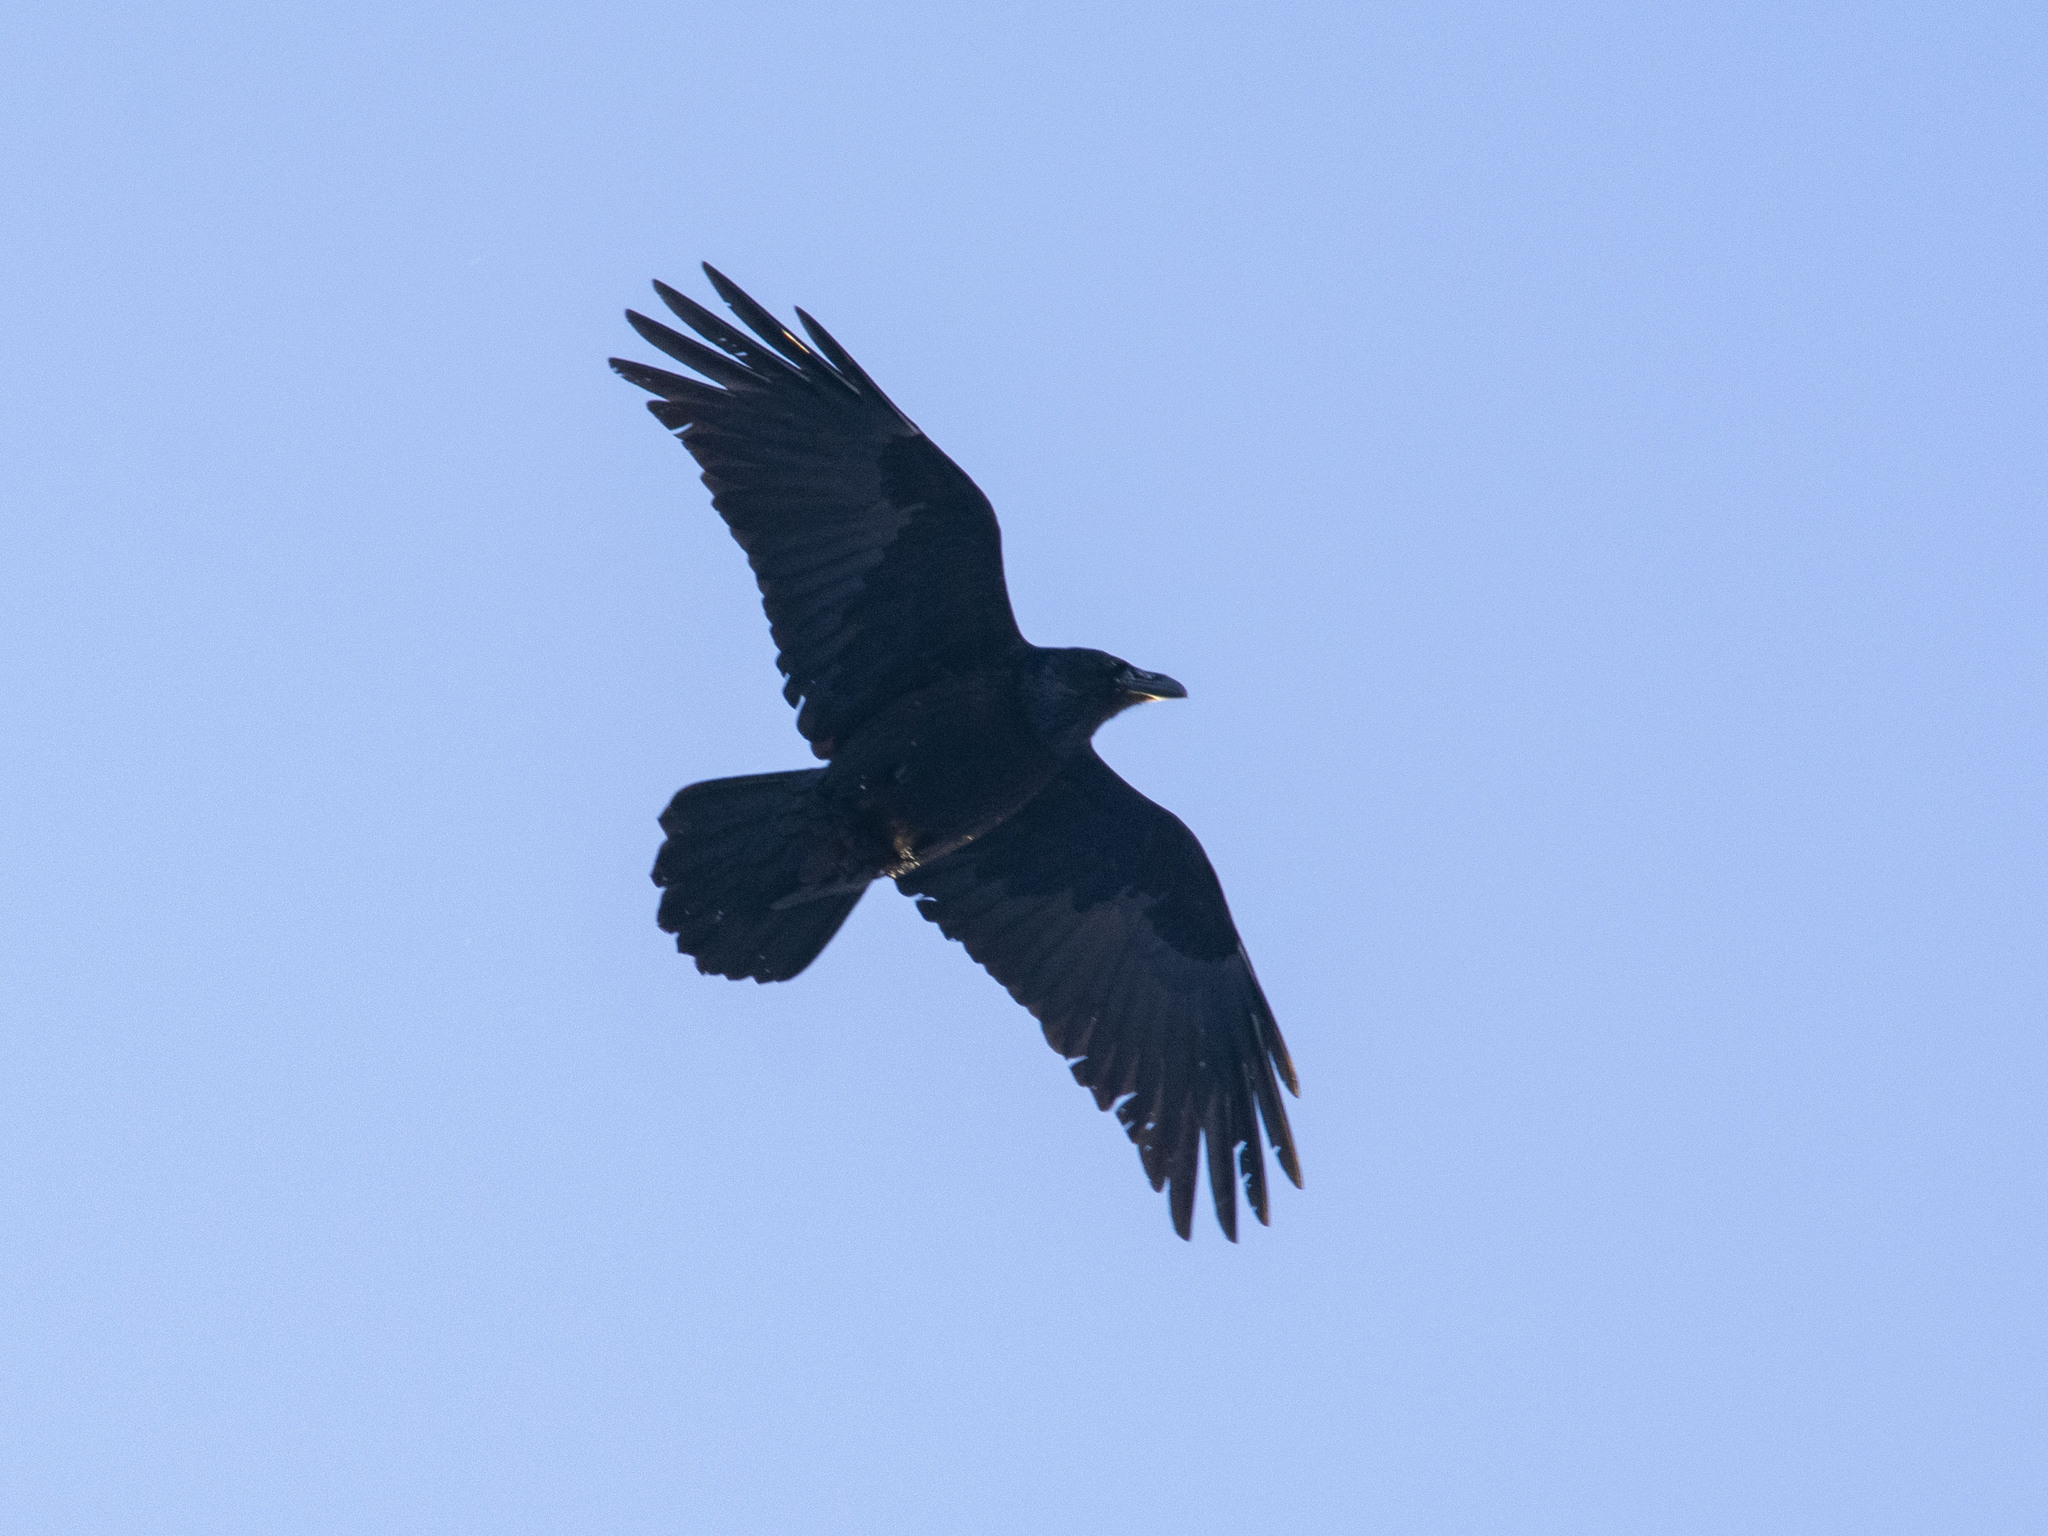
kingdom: Animalia
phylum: Chordata
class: Aves
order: Passeriformes
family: Corvidae
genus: Corvus
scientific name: Corvus corax
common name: Common raven
